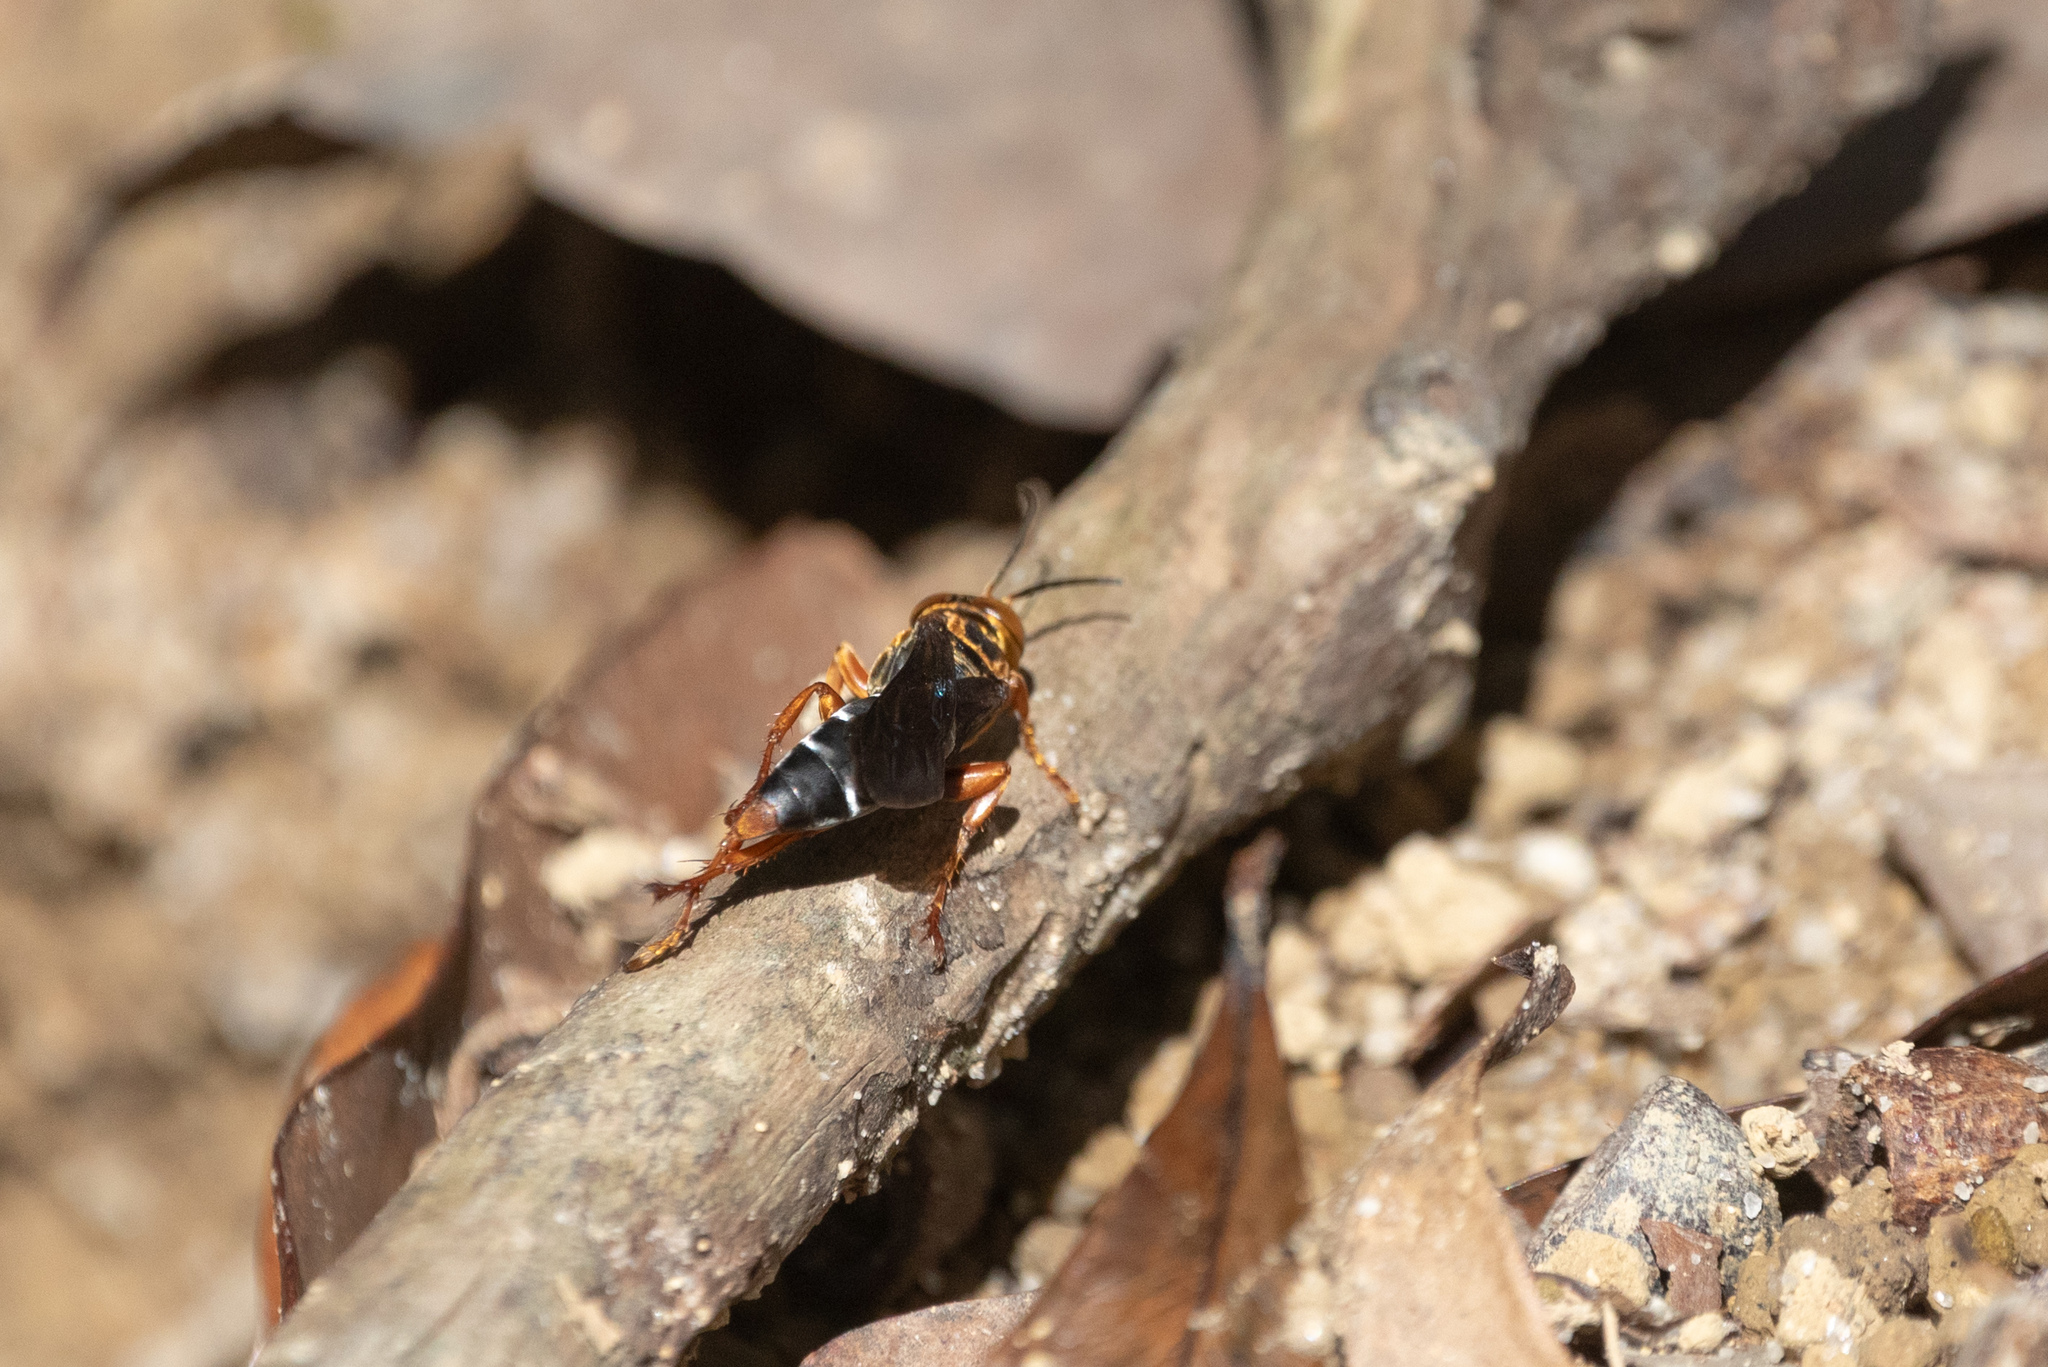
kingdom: Animalia
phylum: Arthropoda
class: Insecta
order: Hymenoptera
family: Crabronidae
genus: Liris
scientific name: Liris aurulentus
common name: Golden cricket wasp
